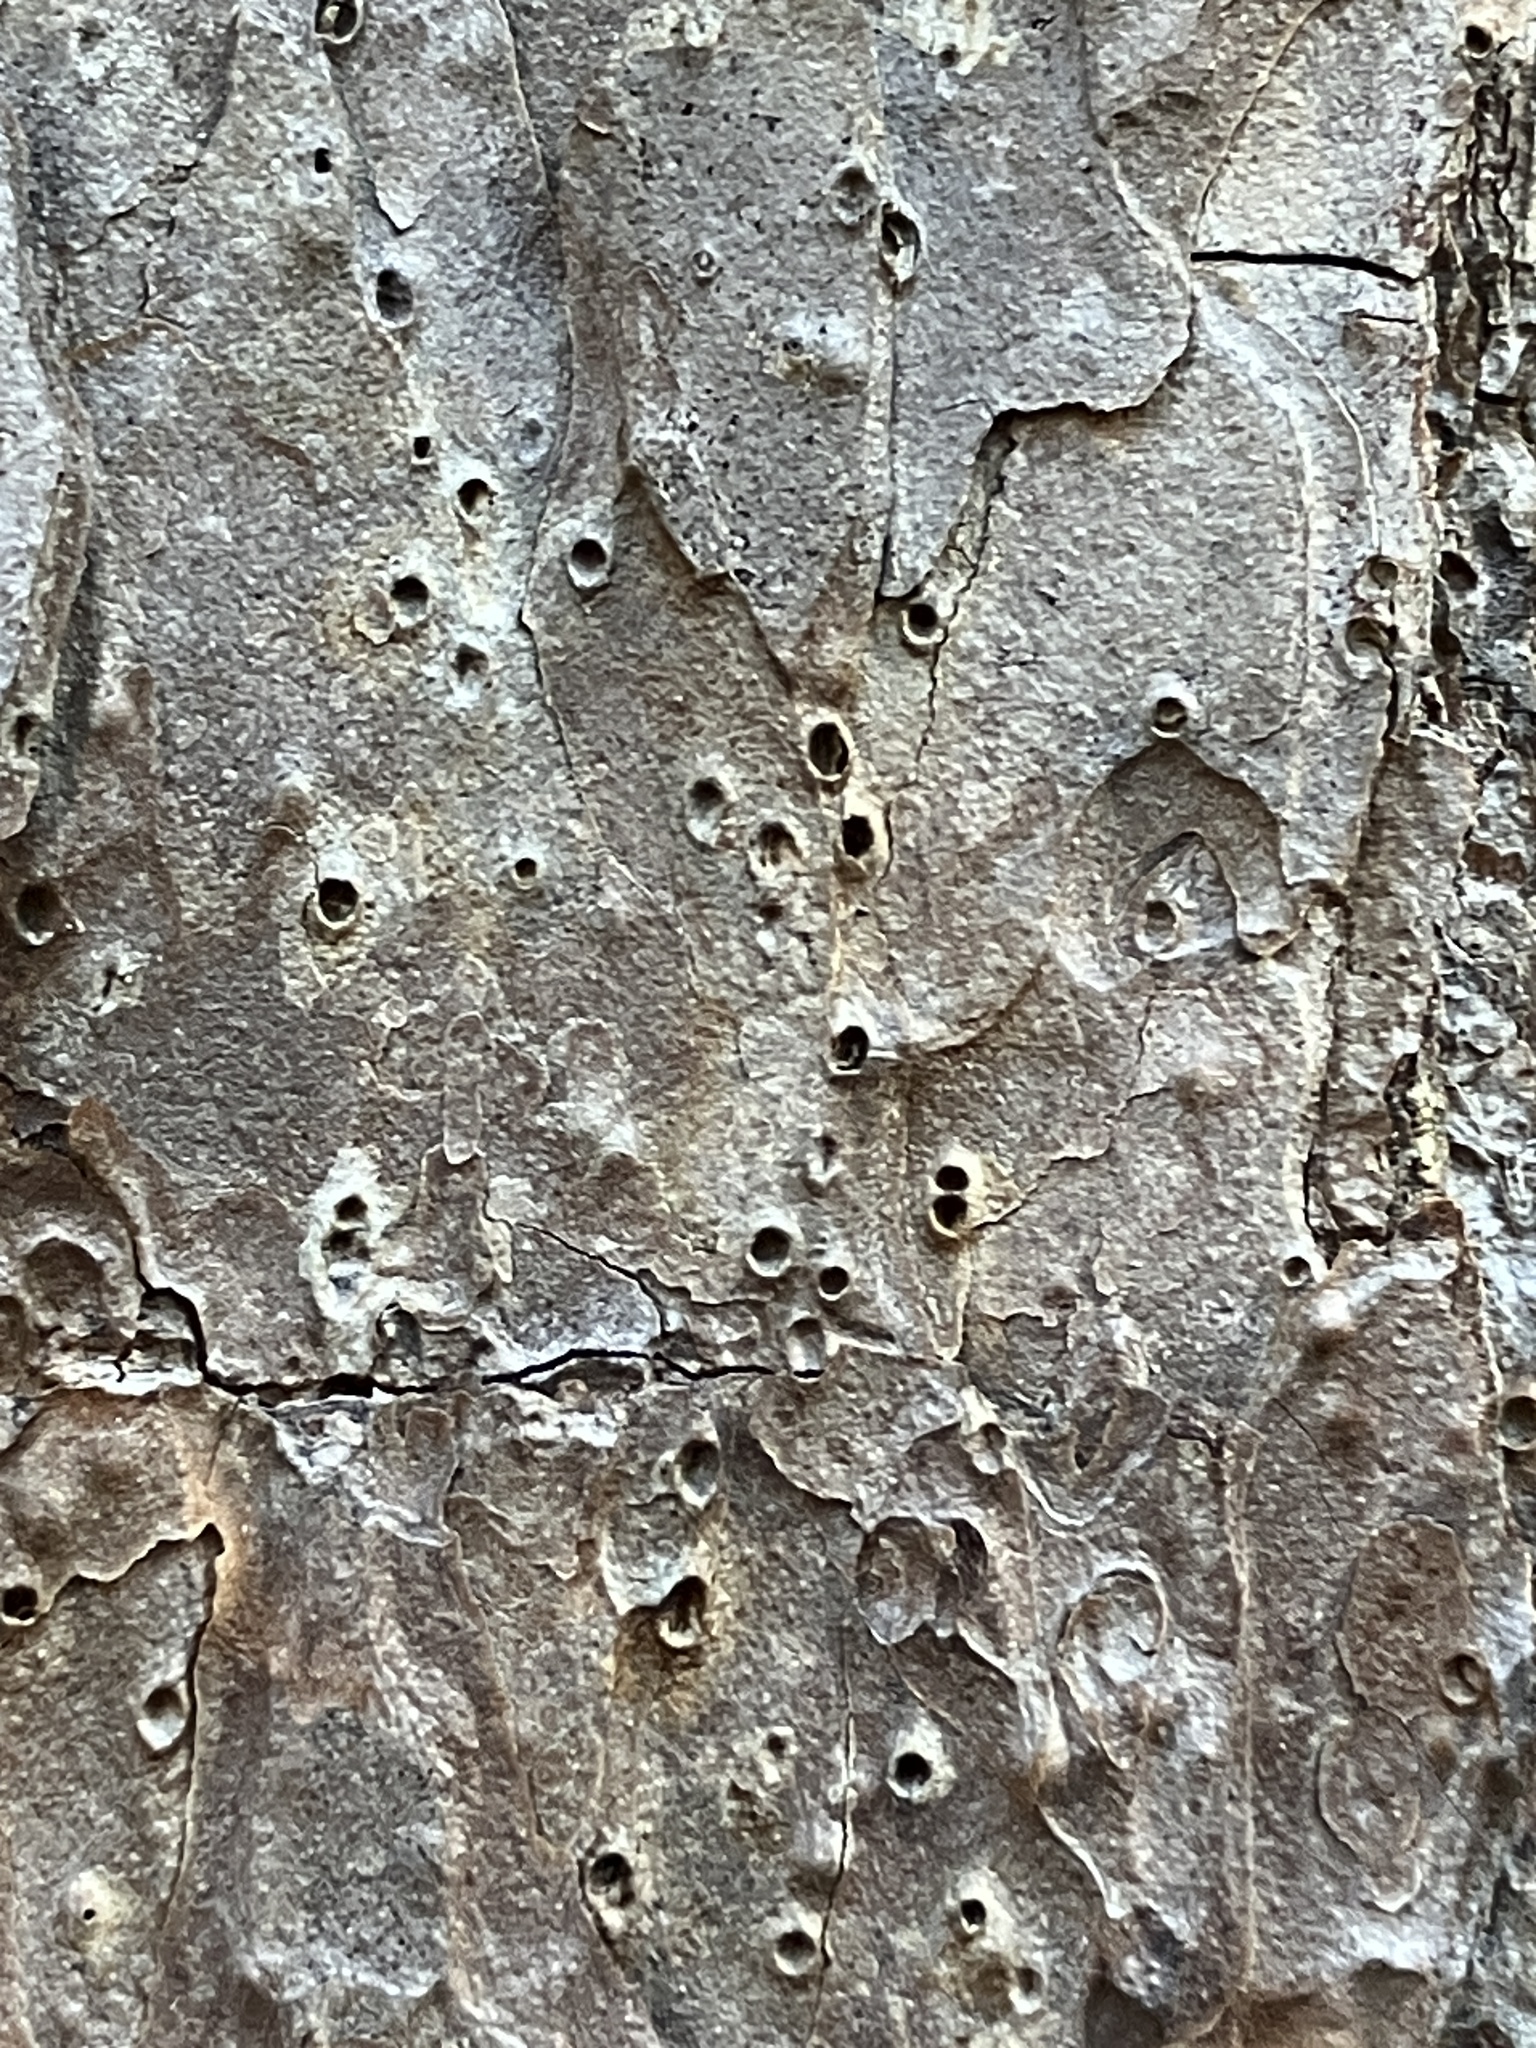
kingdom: Plantae
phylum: Tracheophyta
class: Pinopsida
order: Pinales
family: Pinaceae
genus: Pinus
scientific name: Pinus echinata
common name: Shortleaf pine
